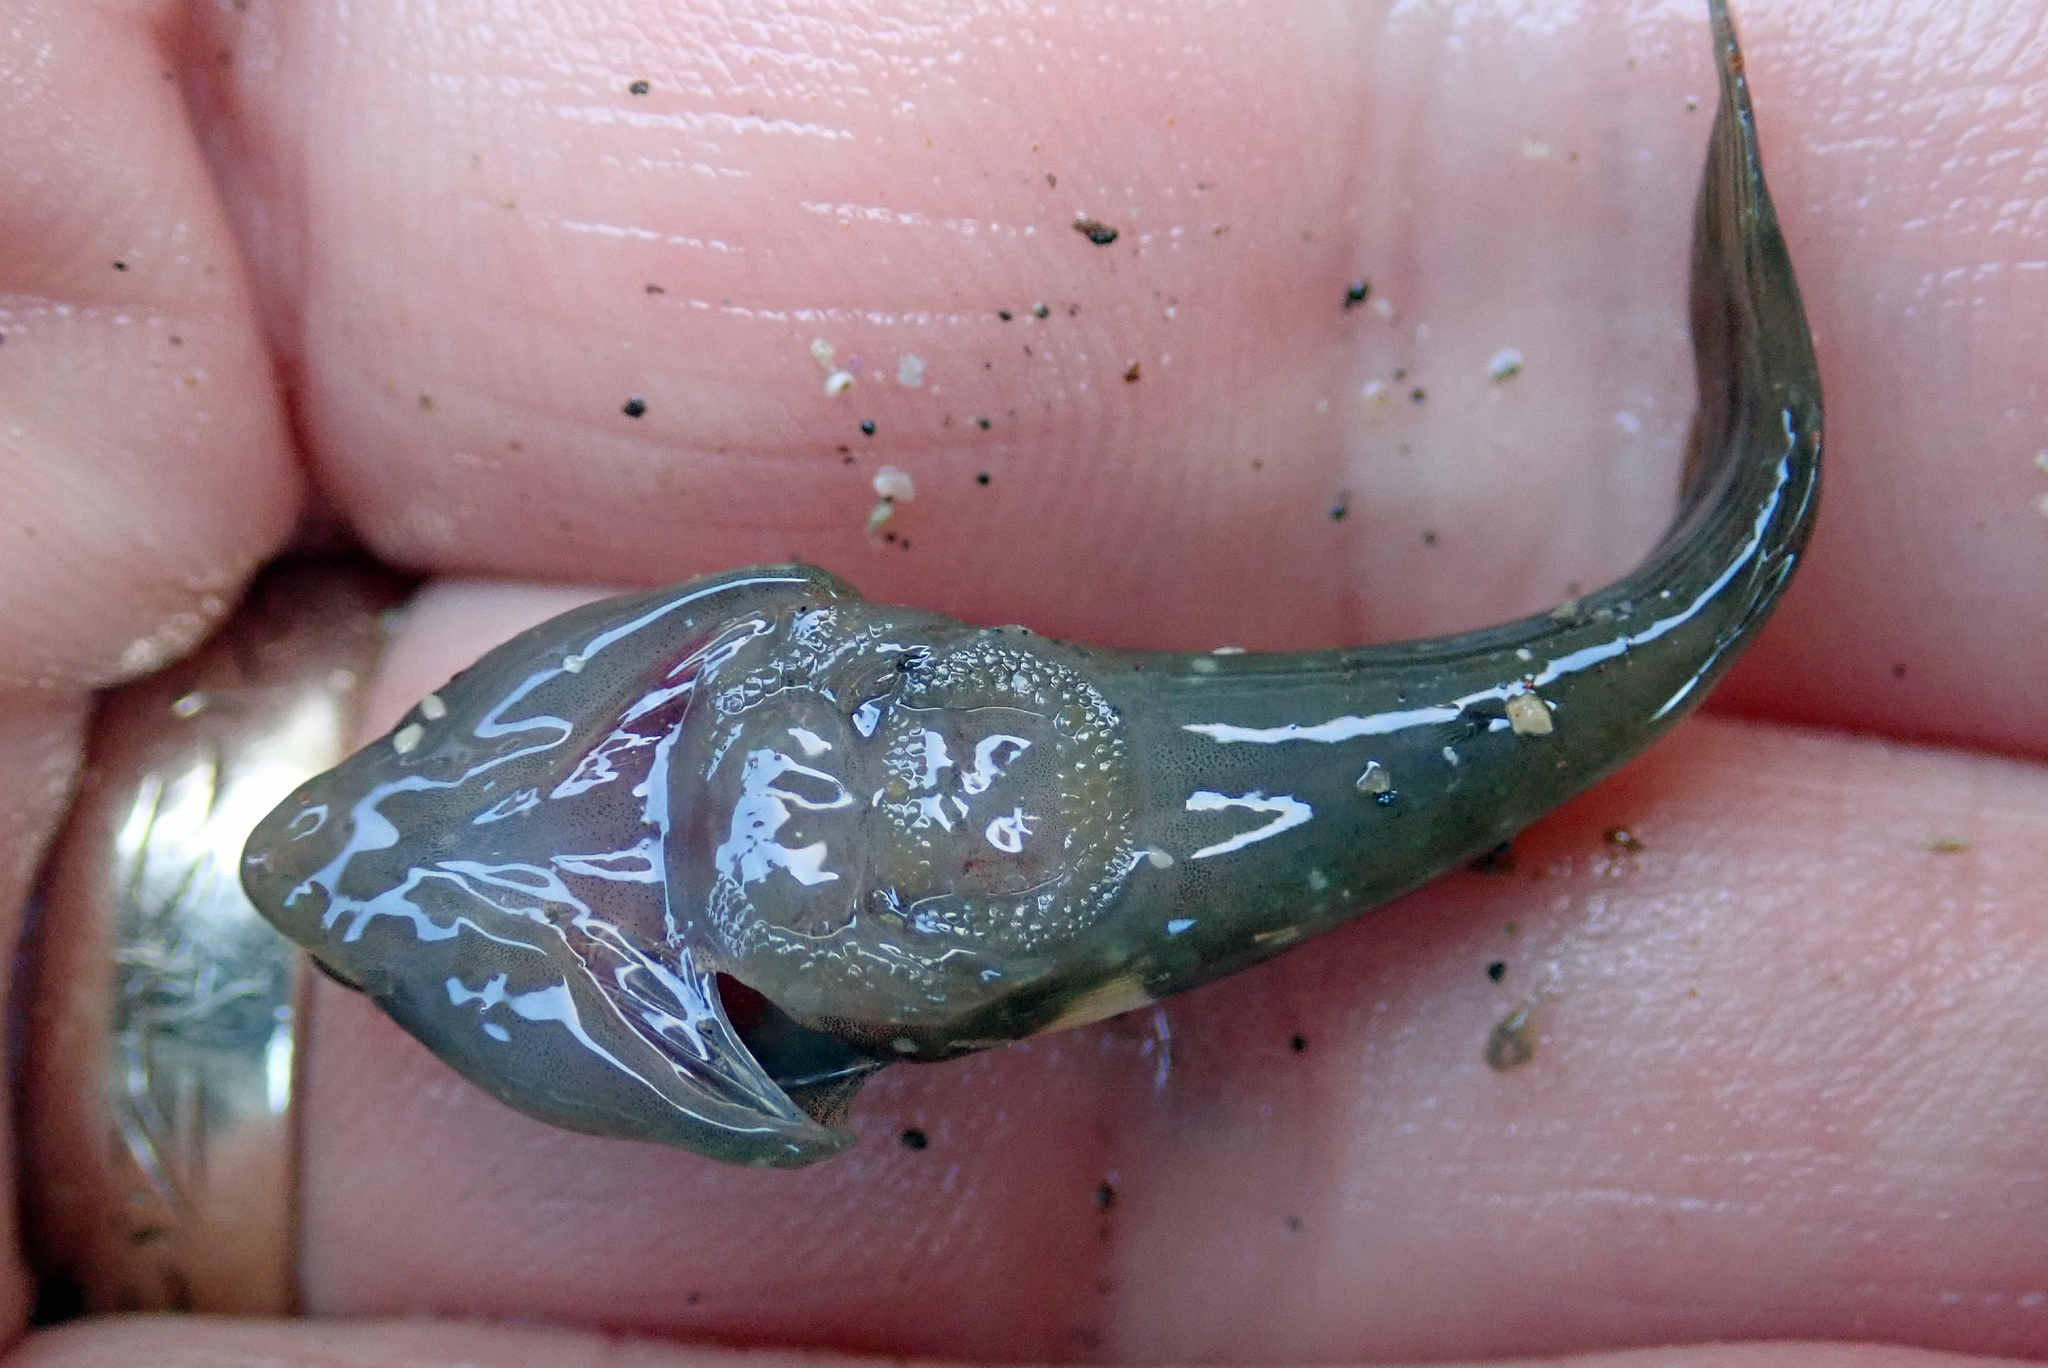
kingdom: Animalia
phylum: Chordata
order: Gobiesociformes
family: Gobiesocidae
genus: Trachelochismus
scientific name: Trachelochismus pinnulatus
